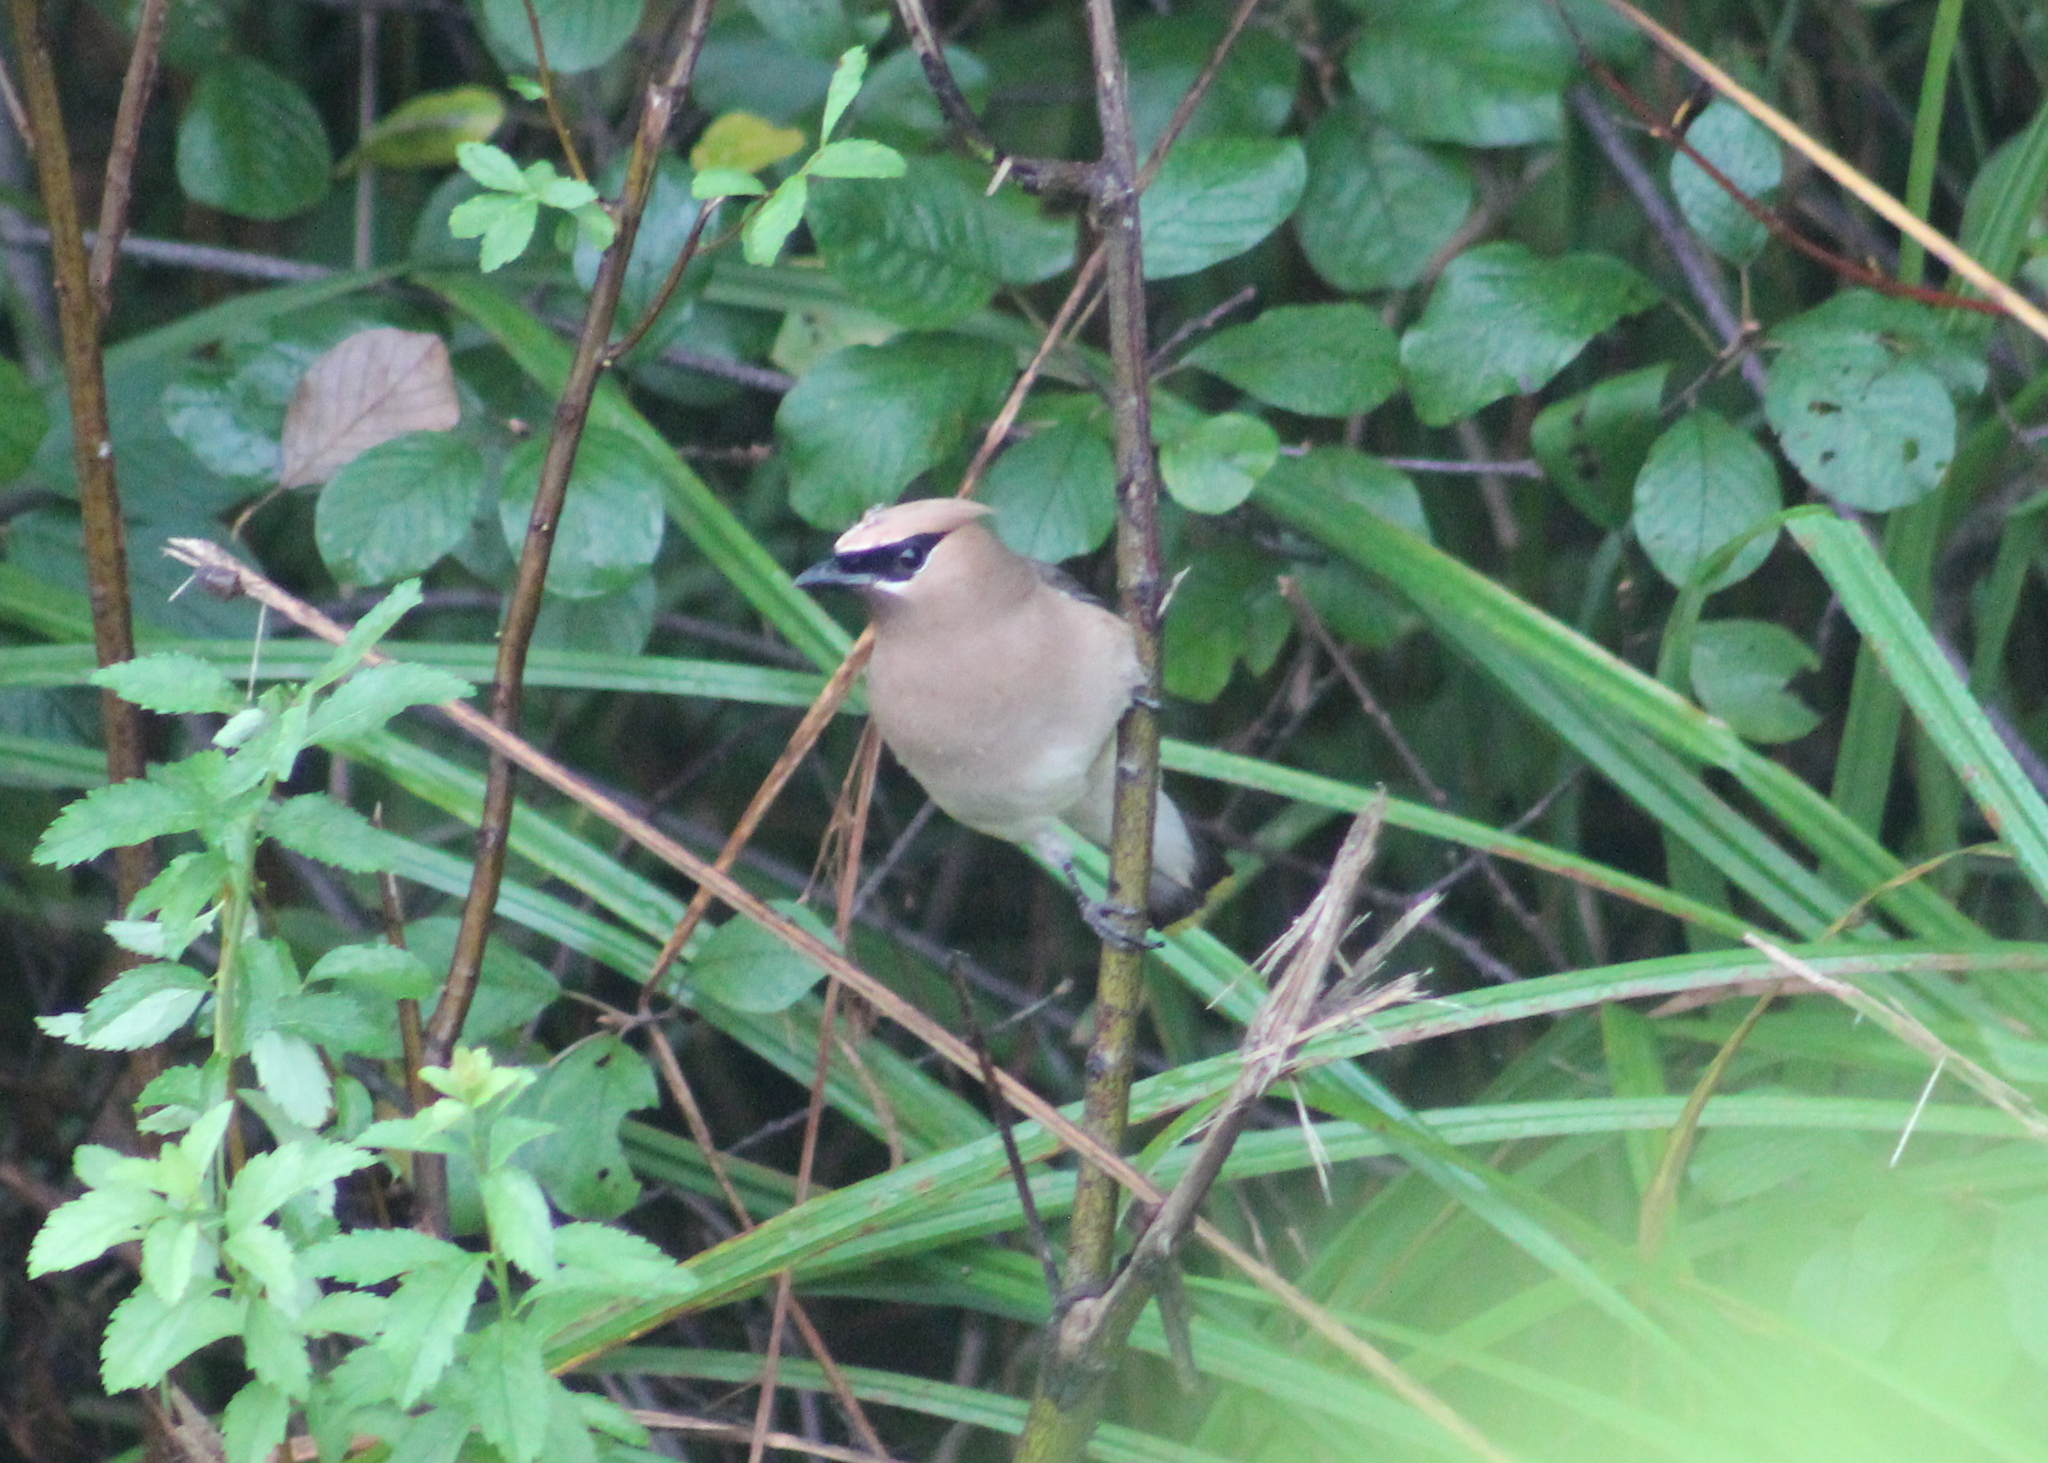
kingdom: Animalia
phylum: Chordata
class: Aves
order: Passeriformes
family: Bombycillidae
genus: Bombycilla
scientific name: Bombycilla cedrorum
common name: Cedar waxwing
